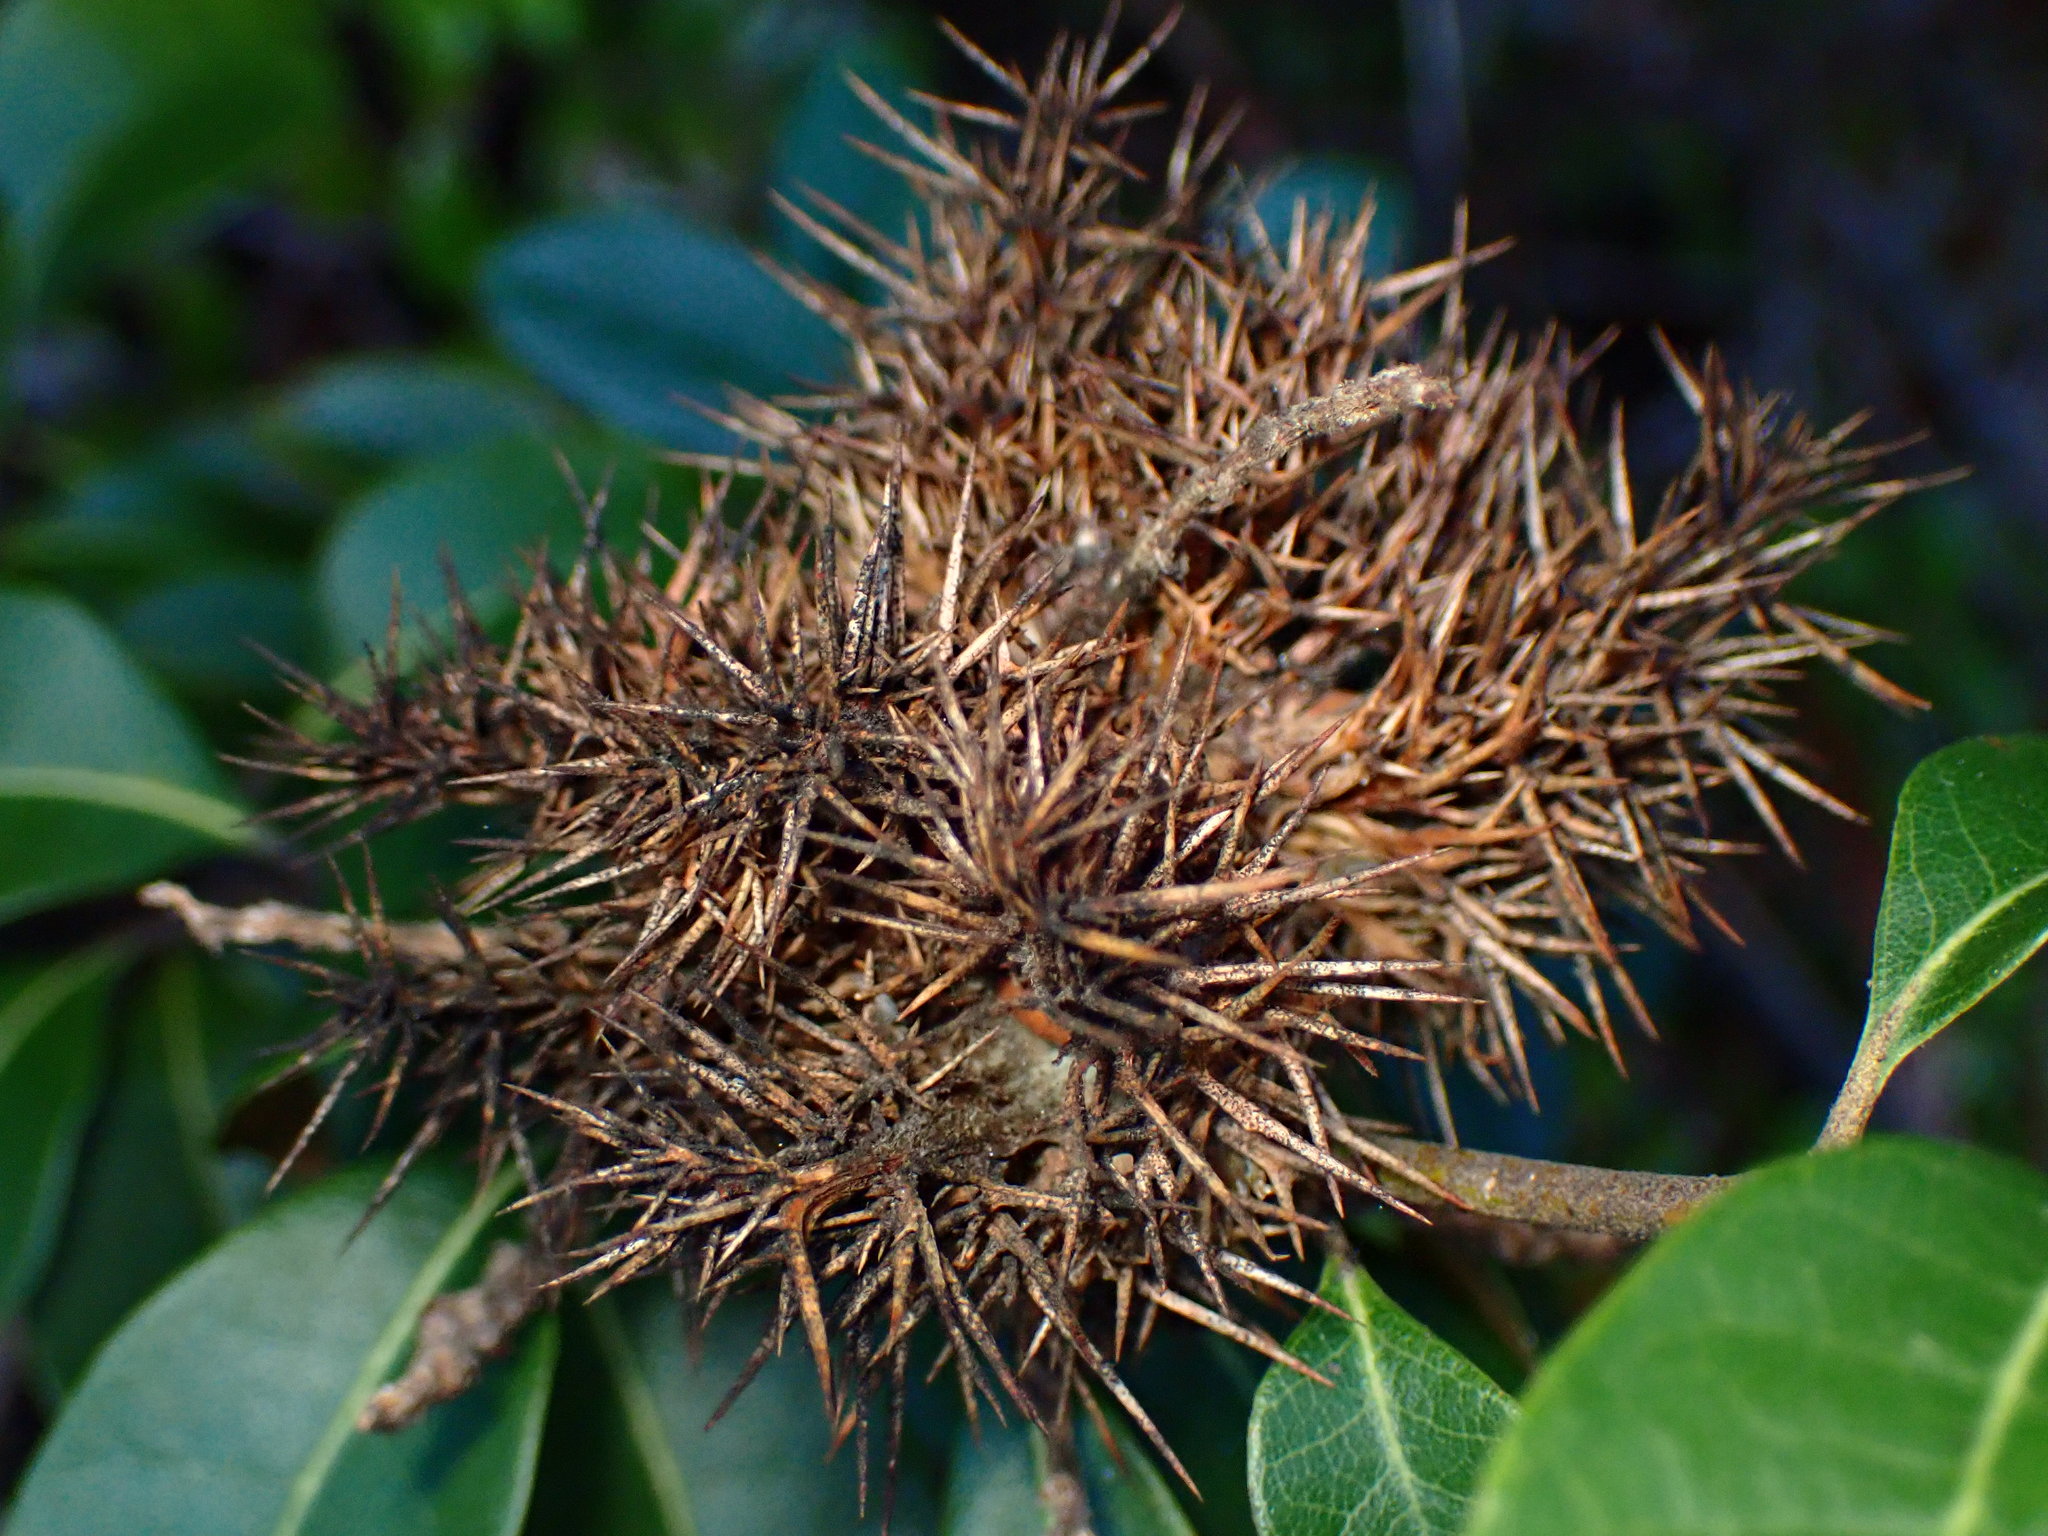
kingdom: Plantae
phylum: Tracheophyta
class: Magnoliopsida
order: Fagales
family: Fagaceae
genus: Chrysolepis
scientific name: Chrysolepis chrysophylla
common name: Giant chinquapin
